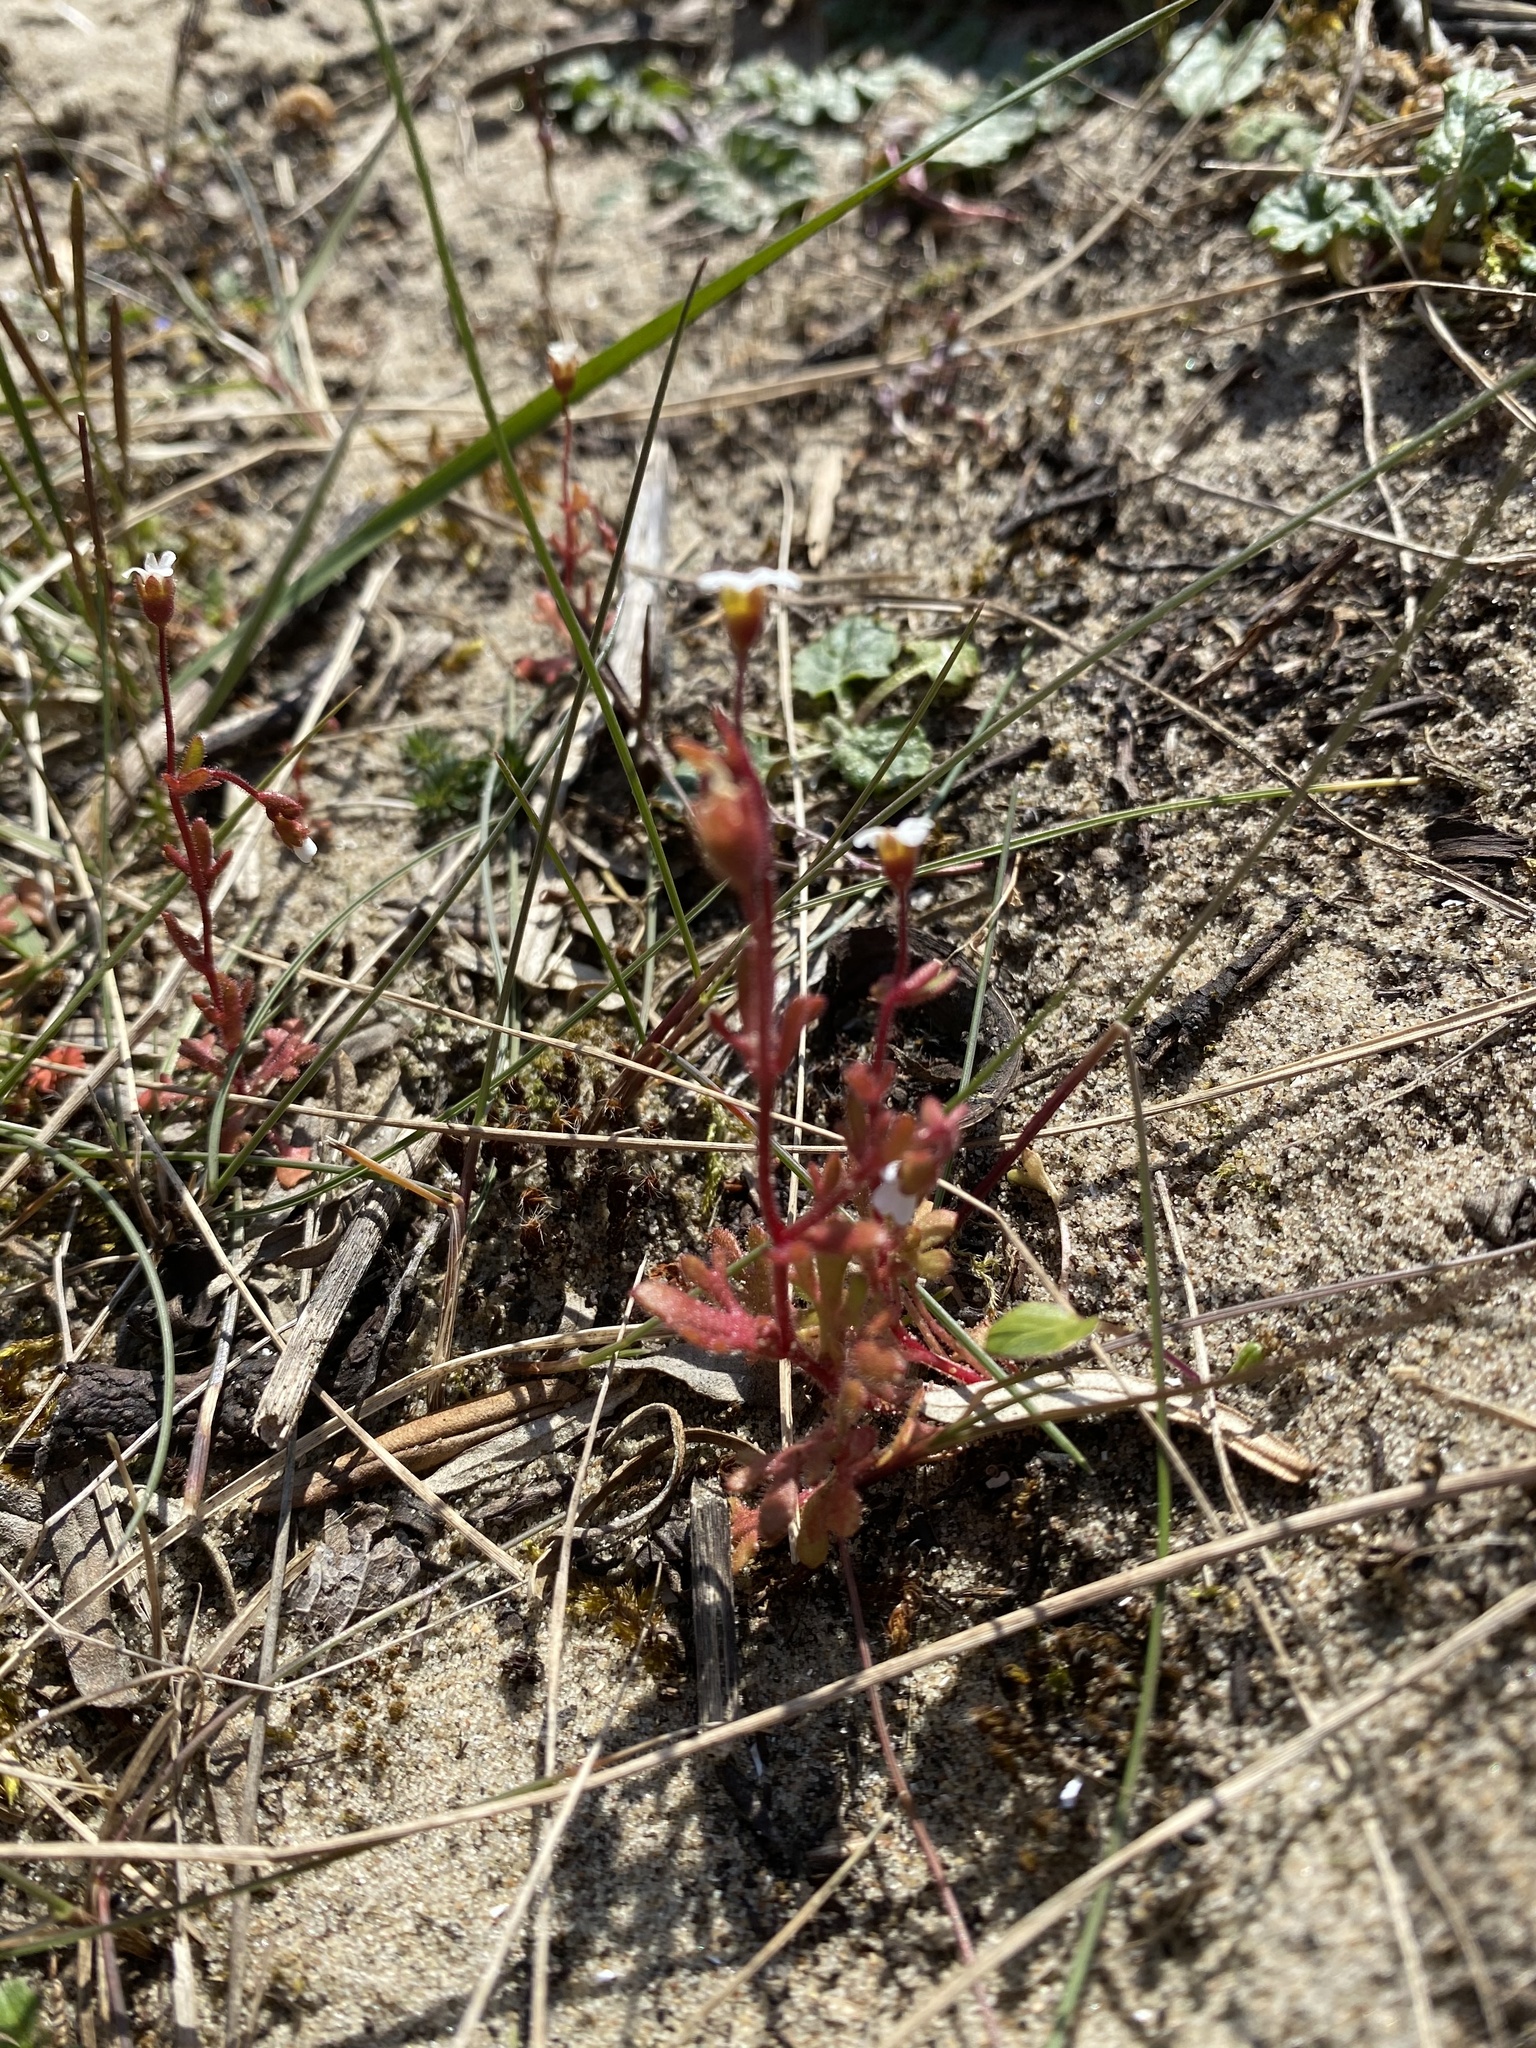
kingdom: Plantae
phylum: Tracheophyta
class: Magnoliopsida
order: Saxifragales
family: Saxifragaceae
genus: Saxifraga
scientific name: Saxifraga tridactylites
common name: Rue-leaved saxifrage
